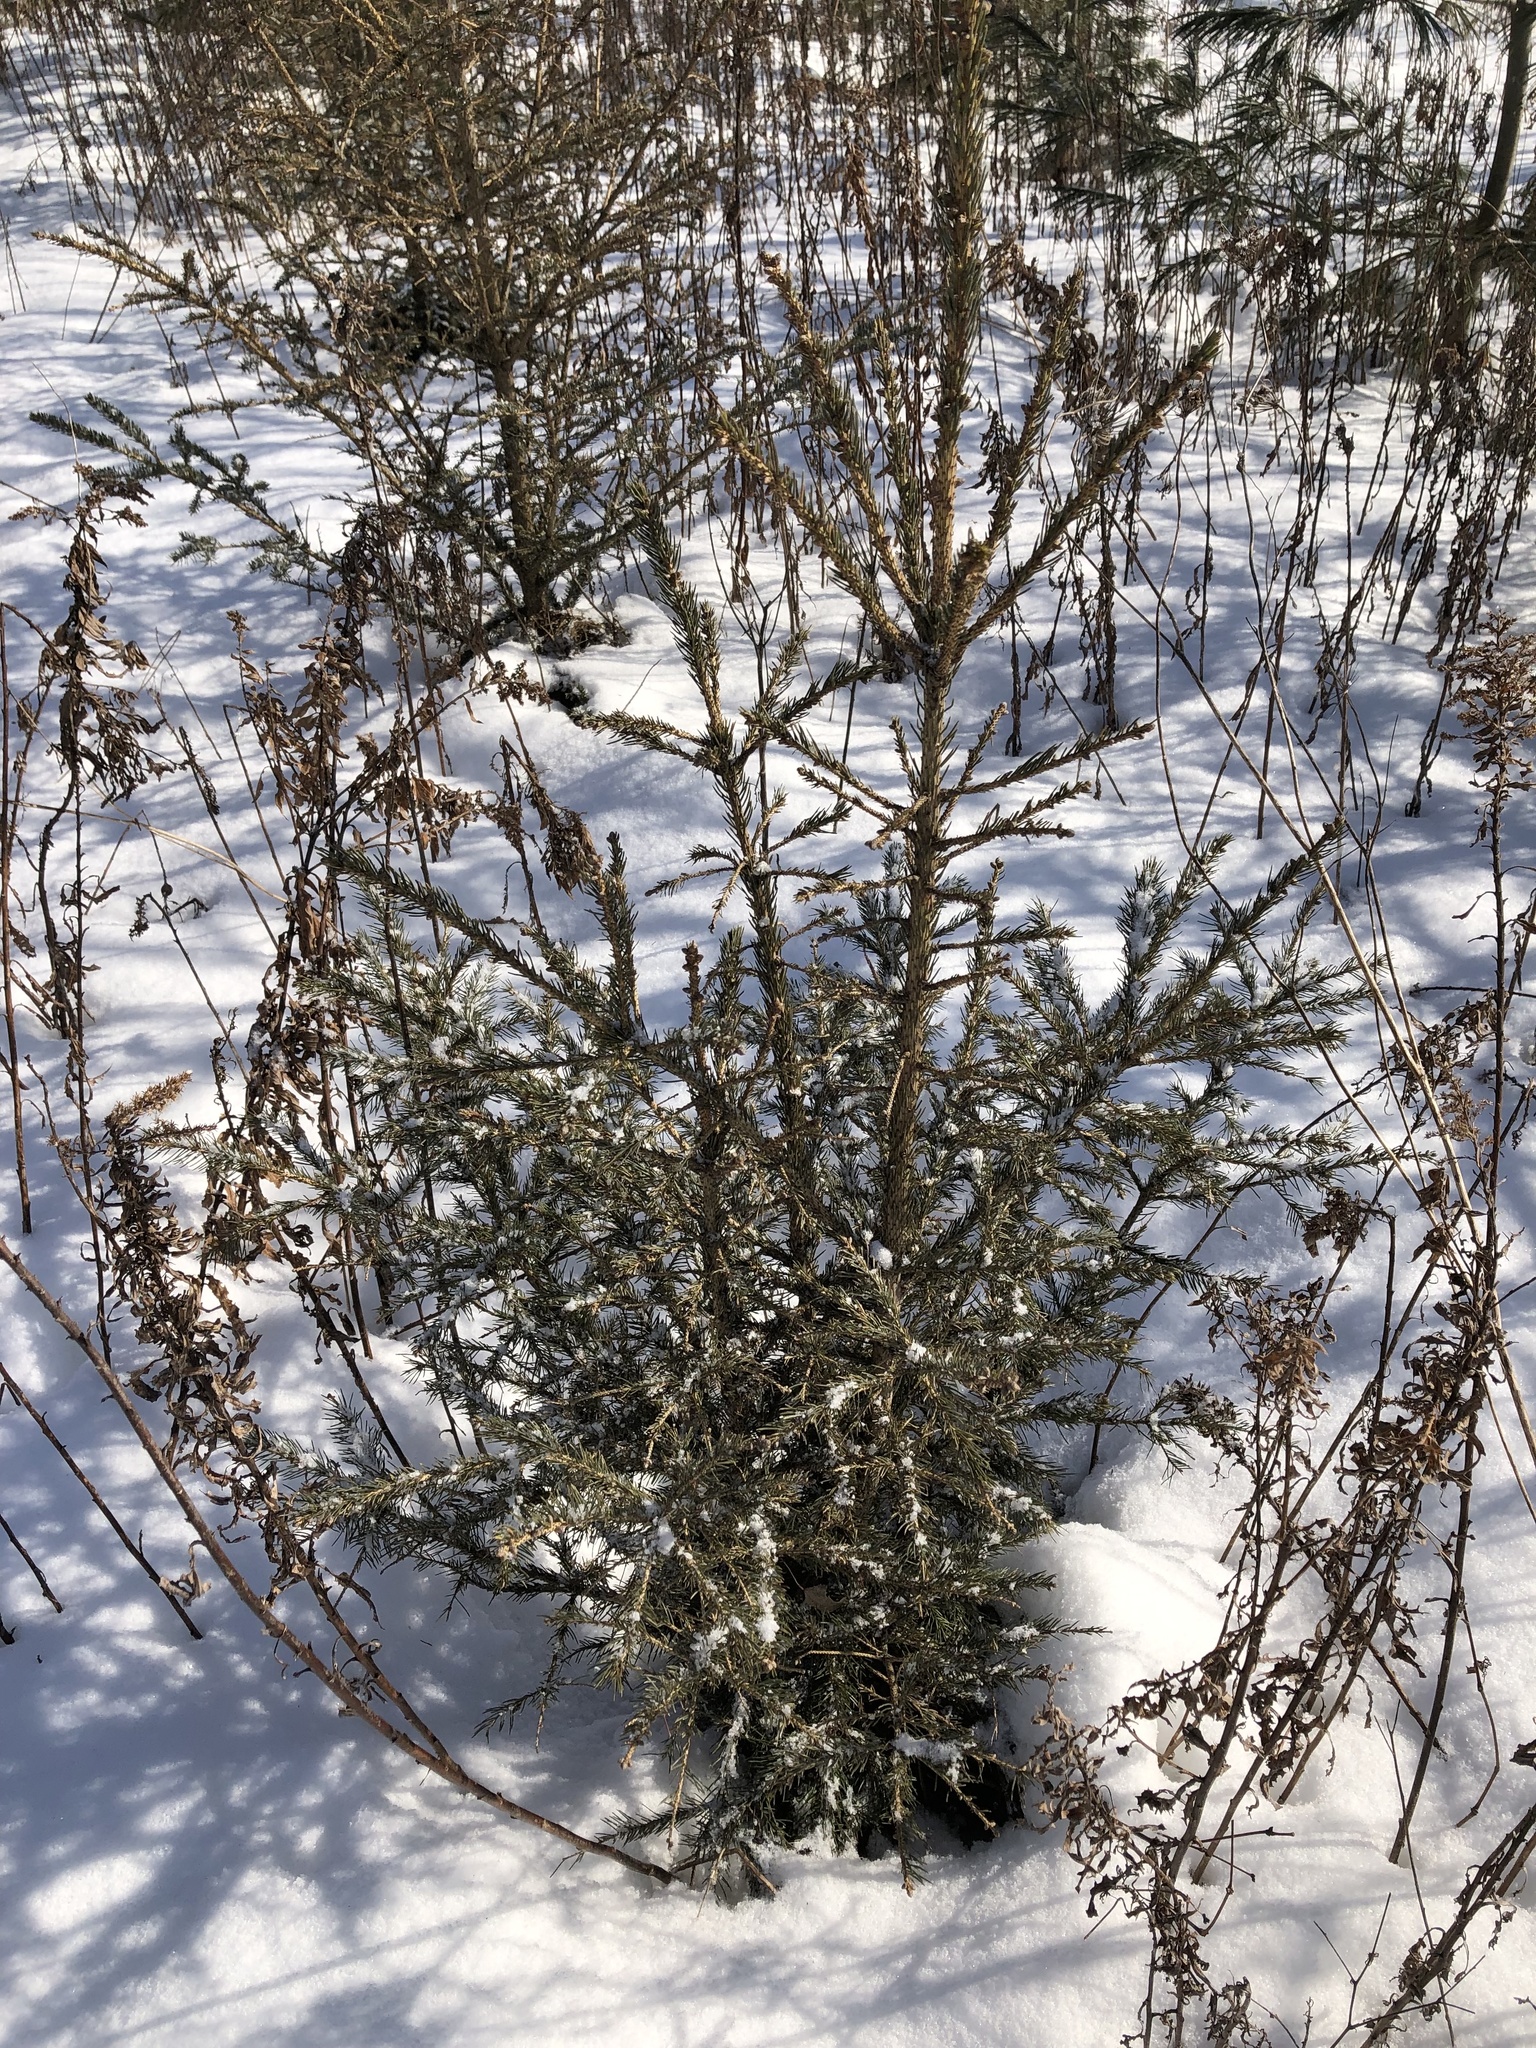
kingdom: Plantae
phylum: Tracheophyta
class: Pinopsida
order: Pinales
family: Pinaceae
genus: Picea
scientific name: Picea glauca
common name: White spruce
